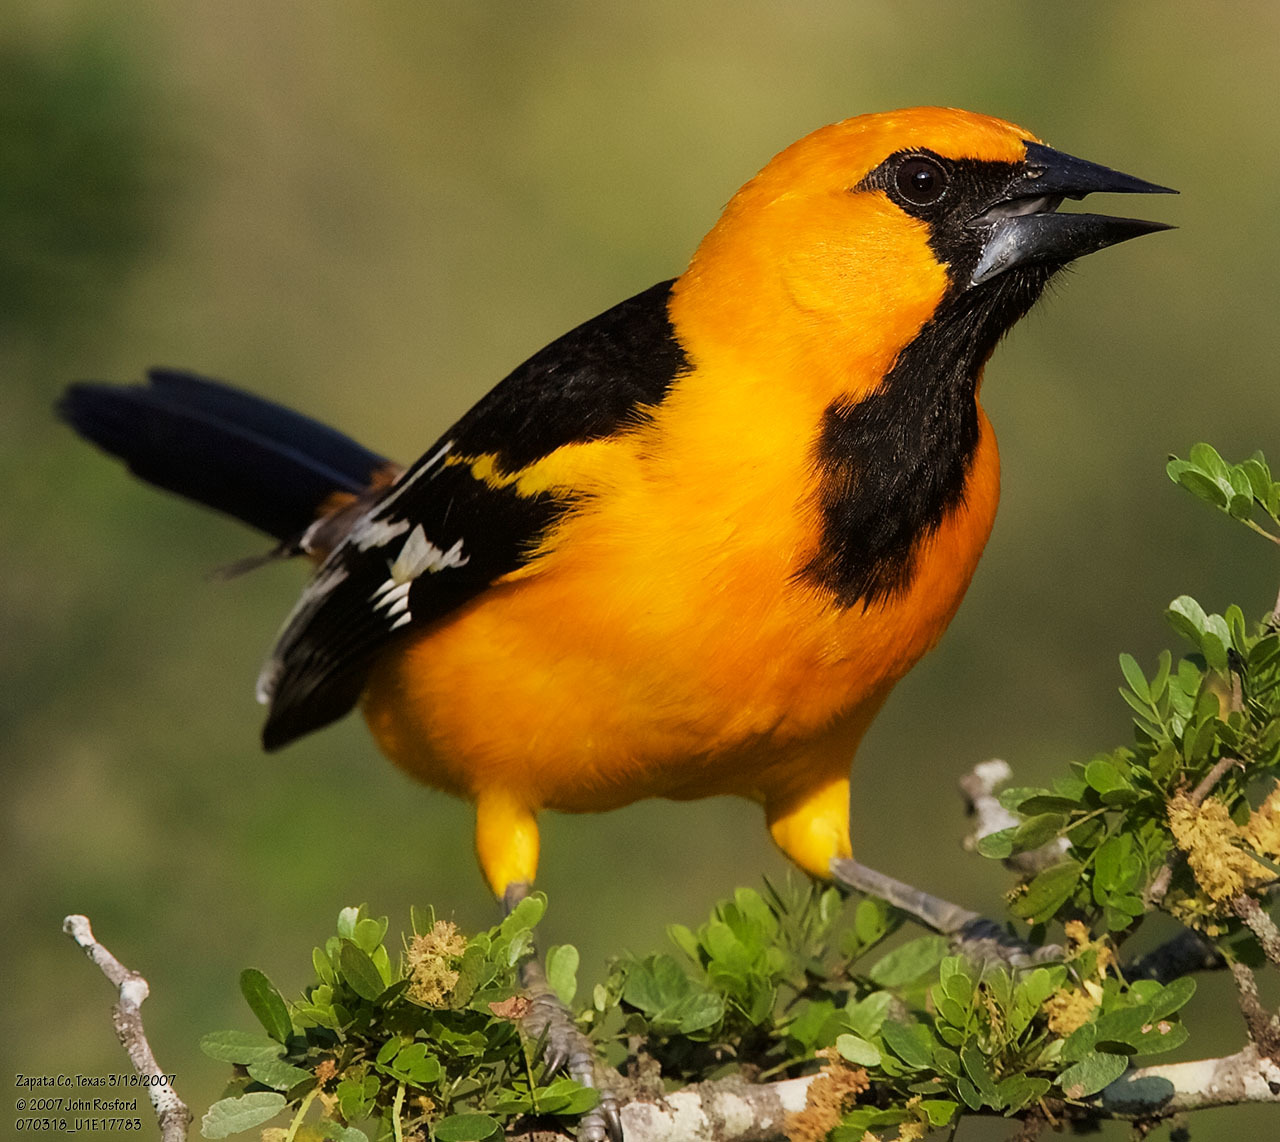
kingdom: Animalia
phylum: Chordata
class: Aves
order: Passeriformes
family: Icteridae
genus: Icterus
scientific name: Icterus gularis
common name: Altamira oriole
